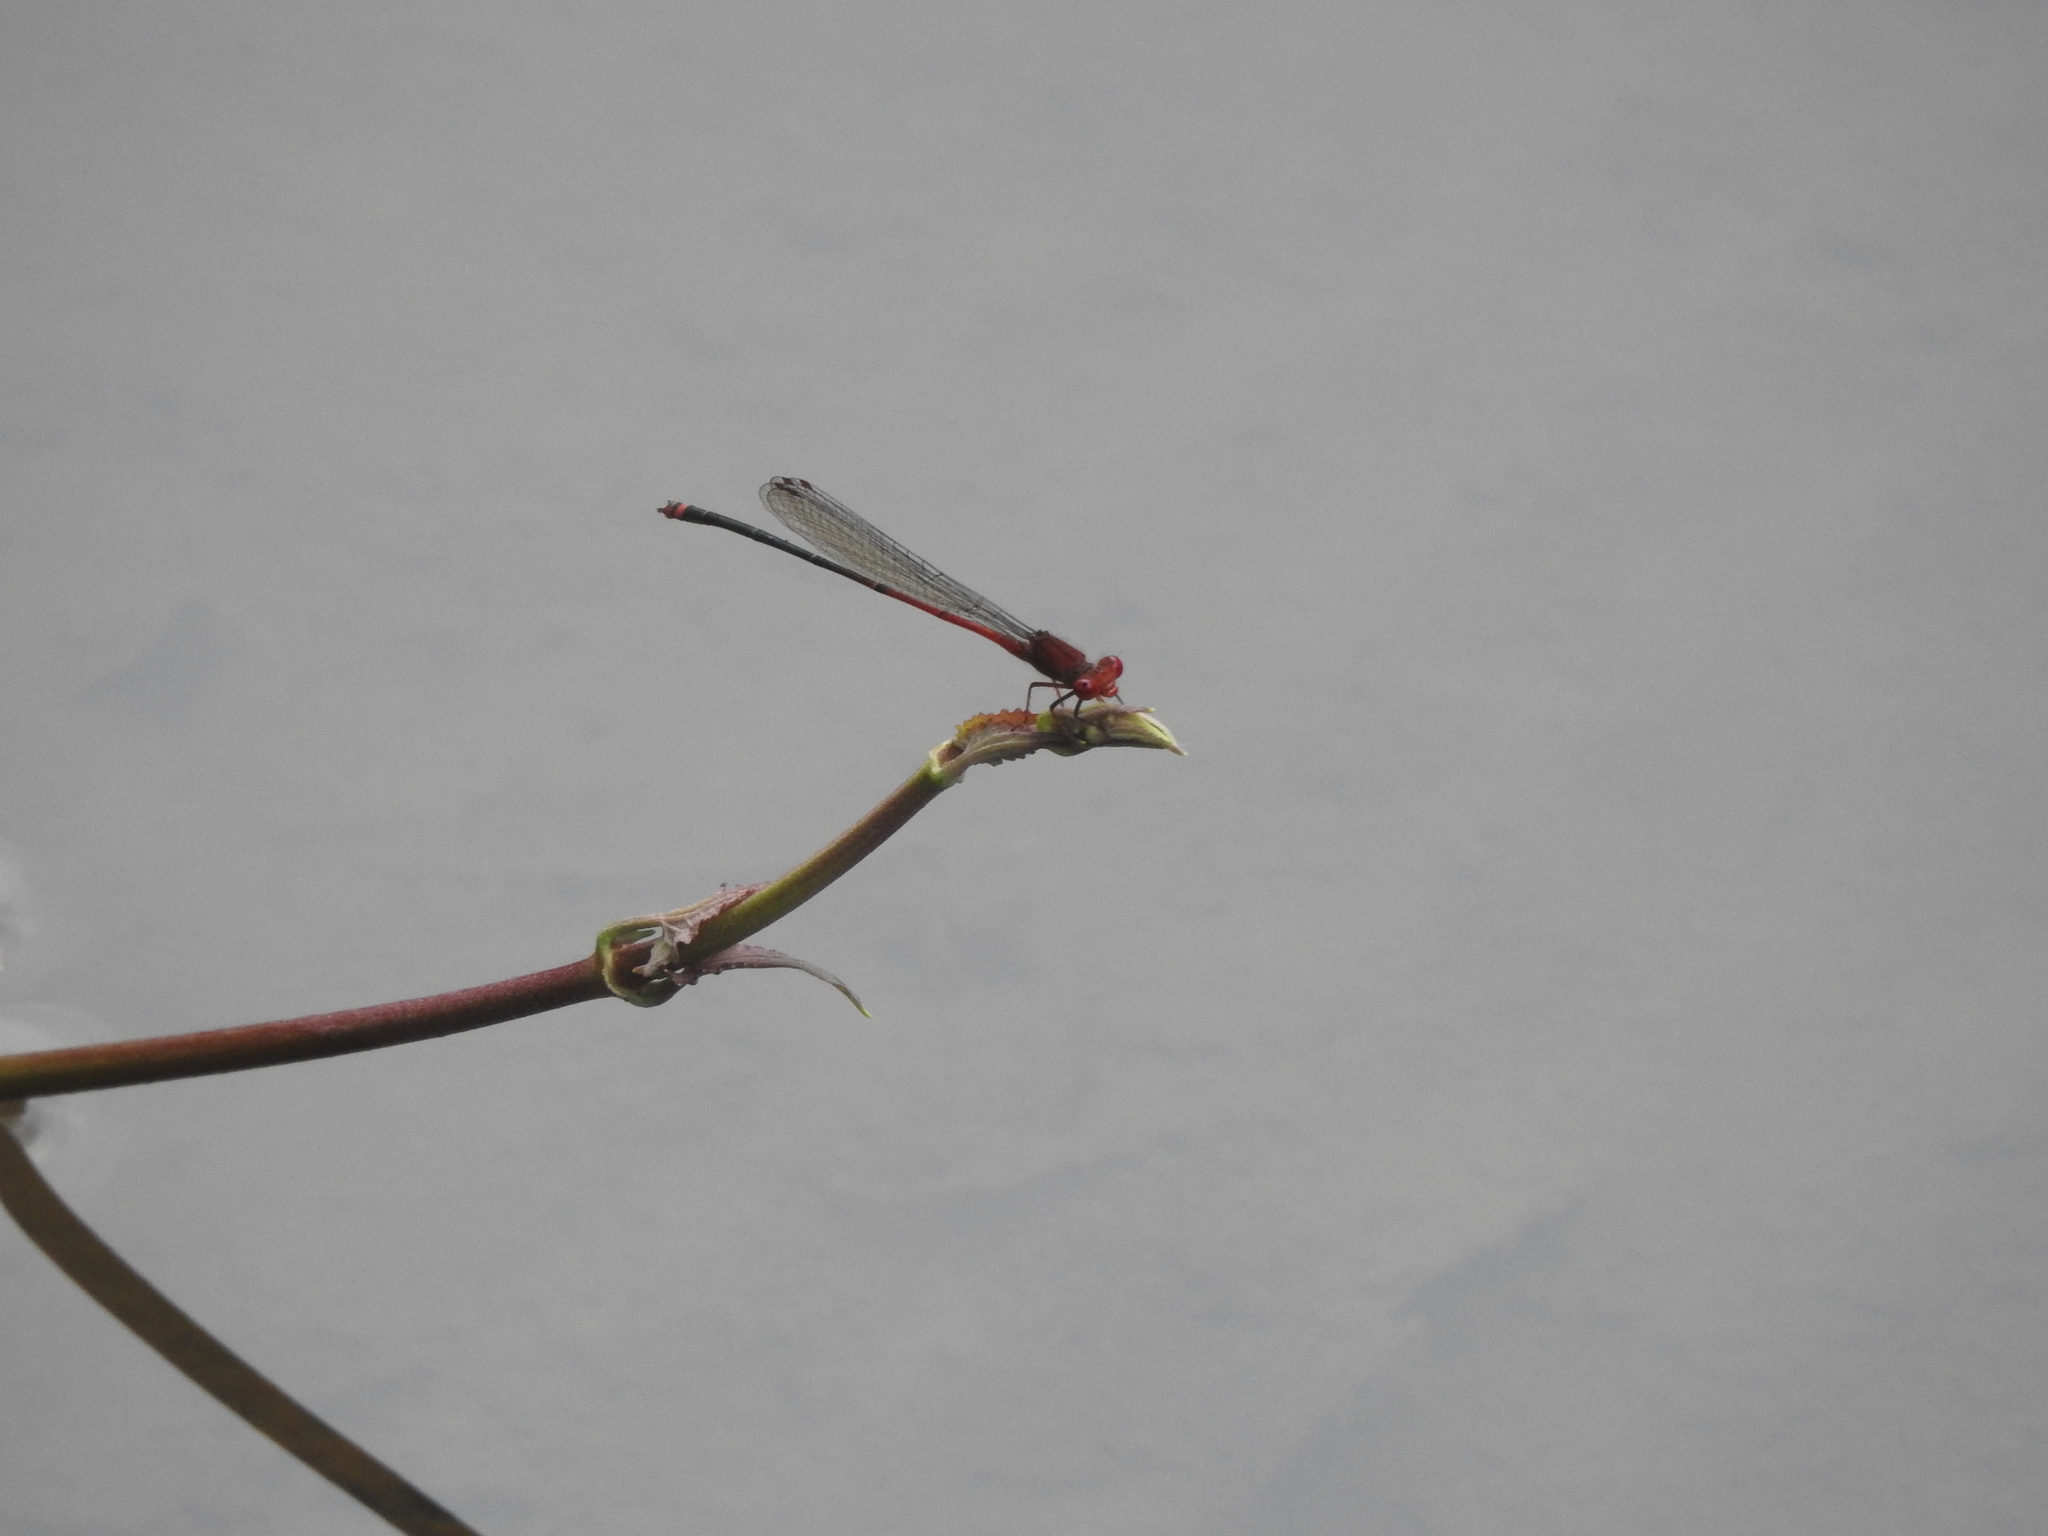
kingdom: Animalia
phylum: Arthropoda
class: Insecta
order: Odonata
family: Coenagrionidae
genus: Pseudagrion
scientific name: Pseudagrion pilidorsum
